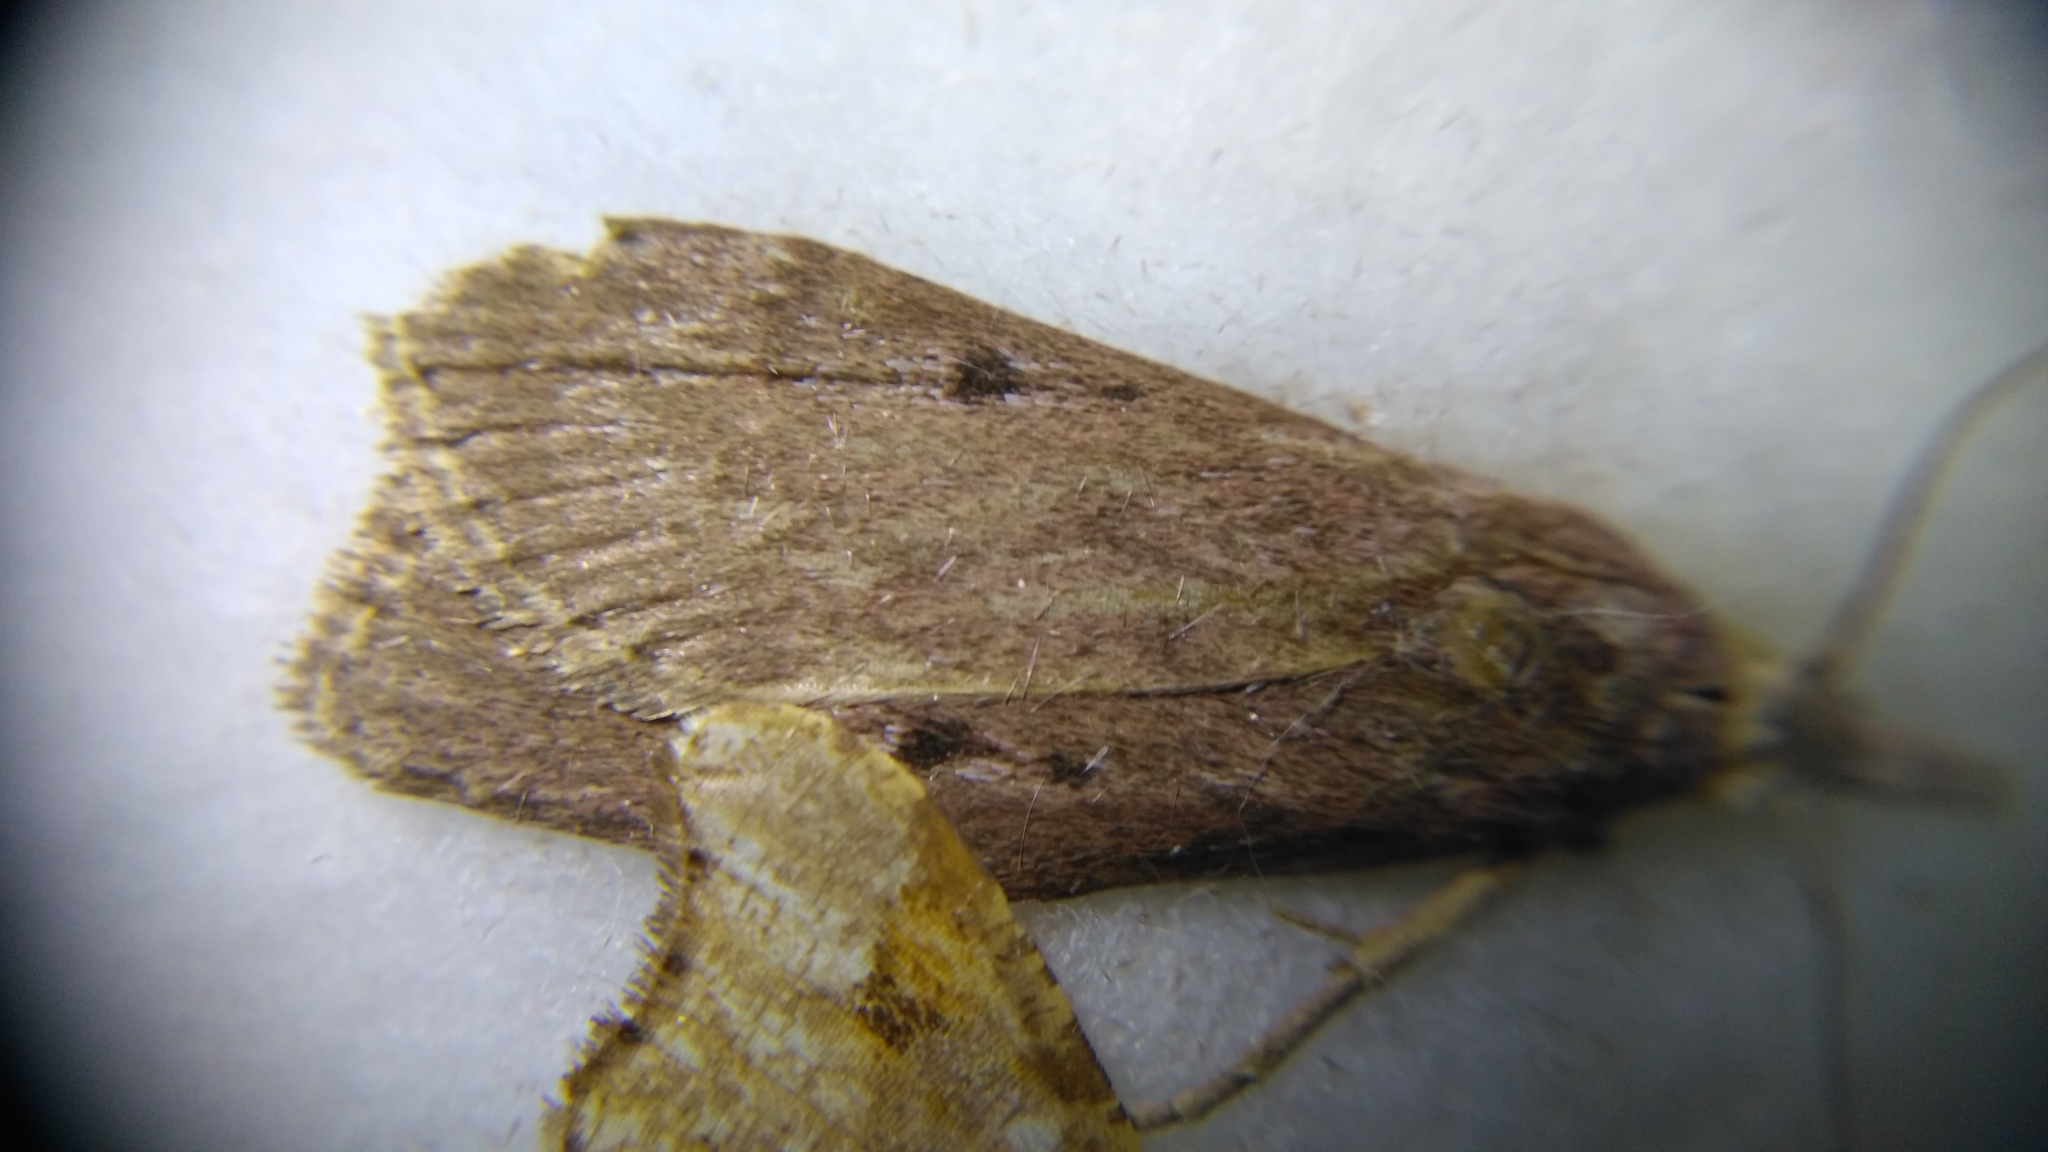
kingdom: Animalia
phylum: Arthropoda
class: Insecta
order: Lepidoptera
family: Pyralidae
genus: Aphomia
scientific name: Aphomia sociella
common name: Bee moth
